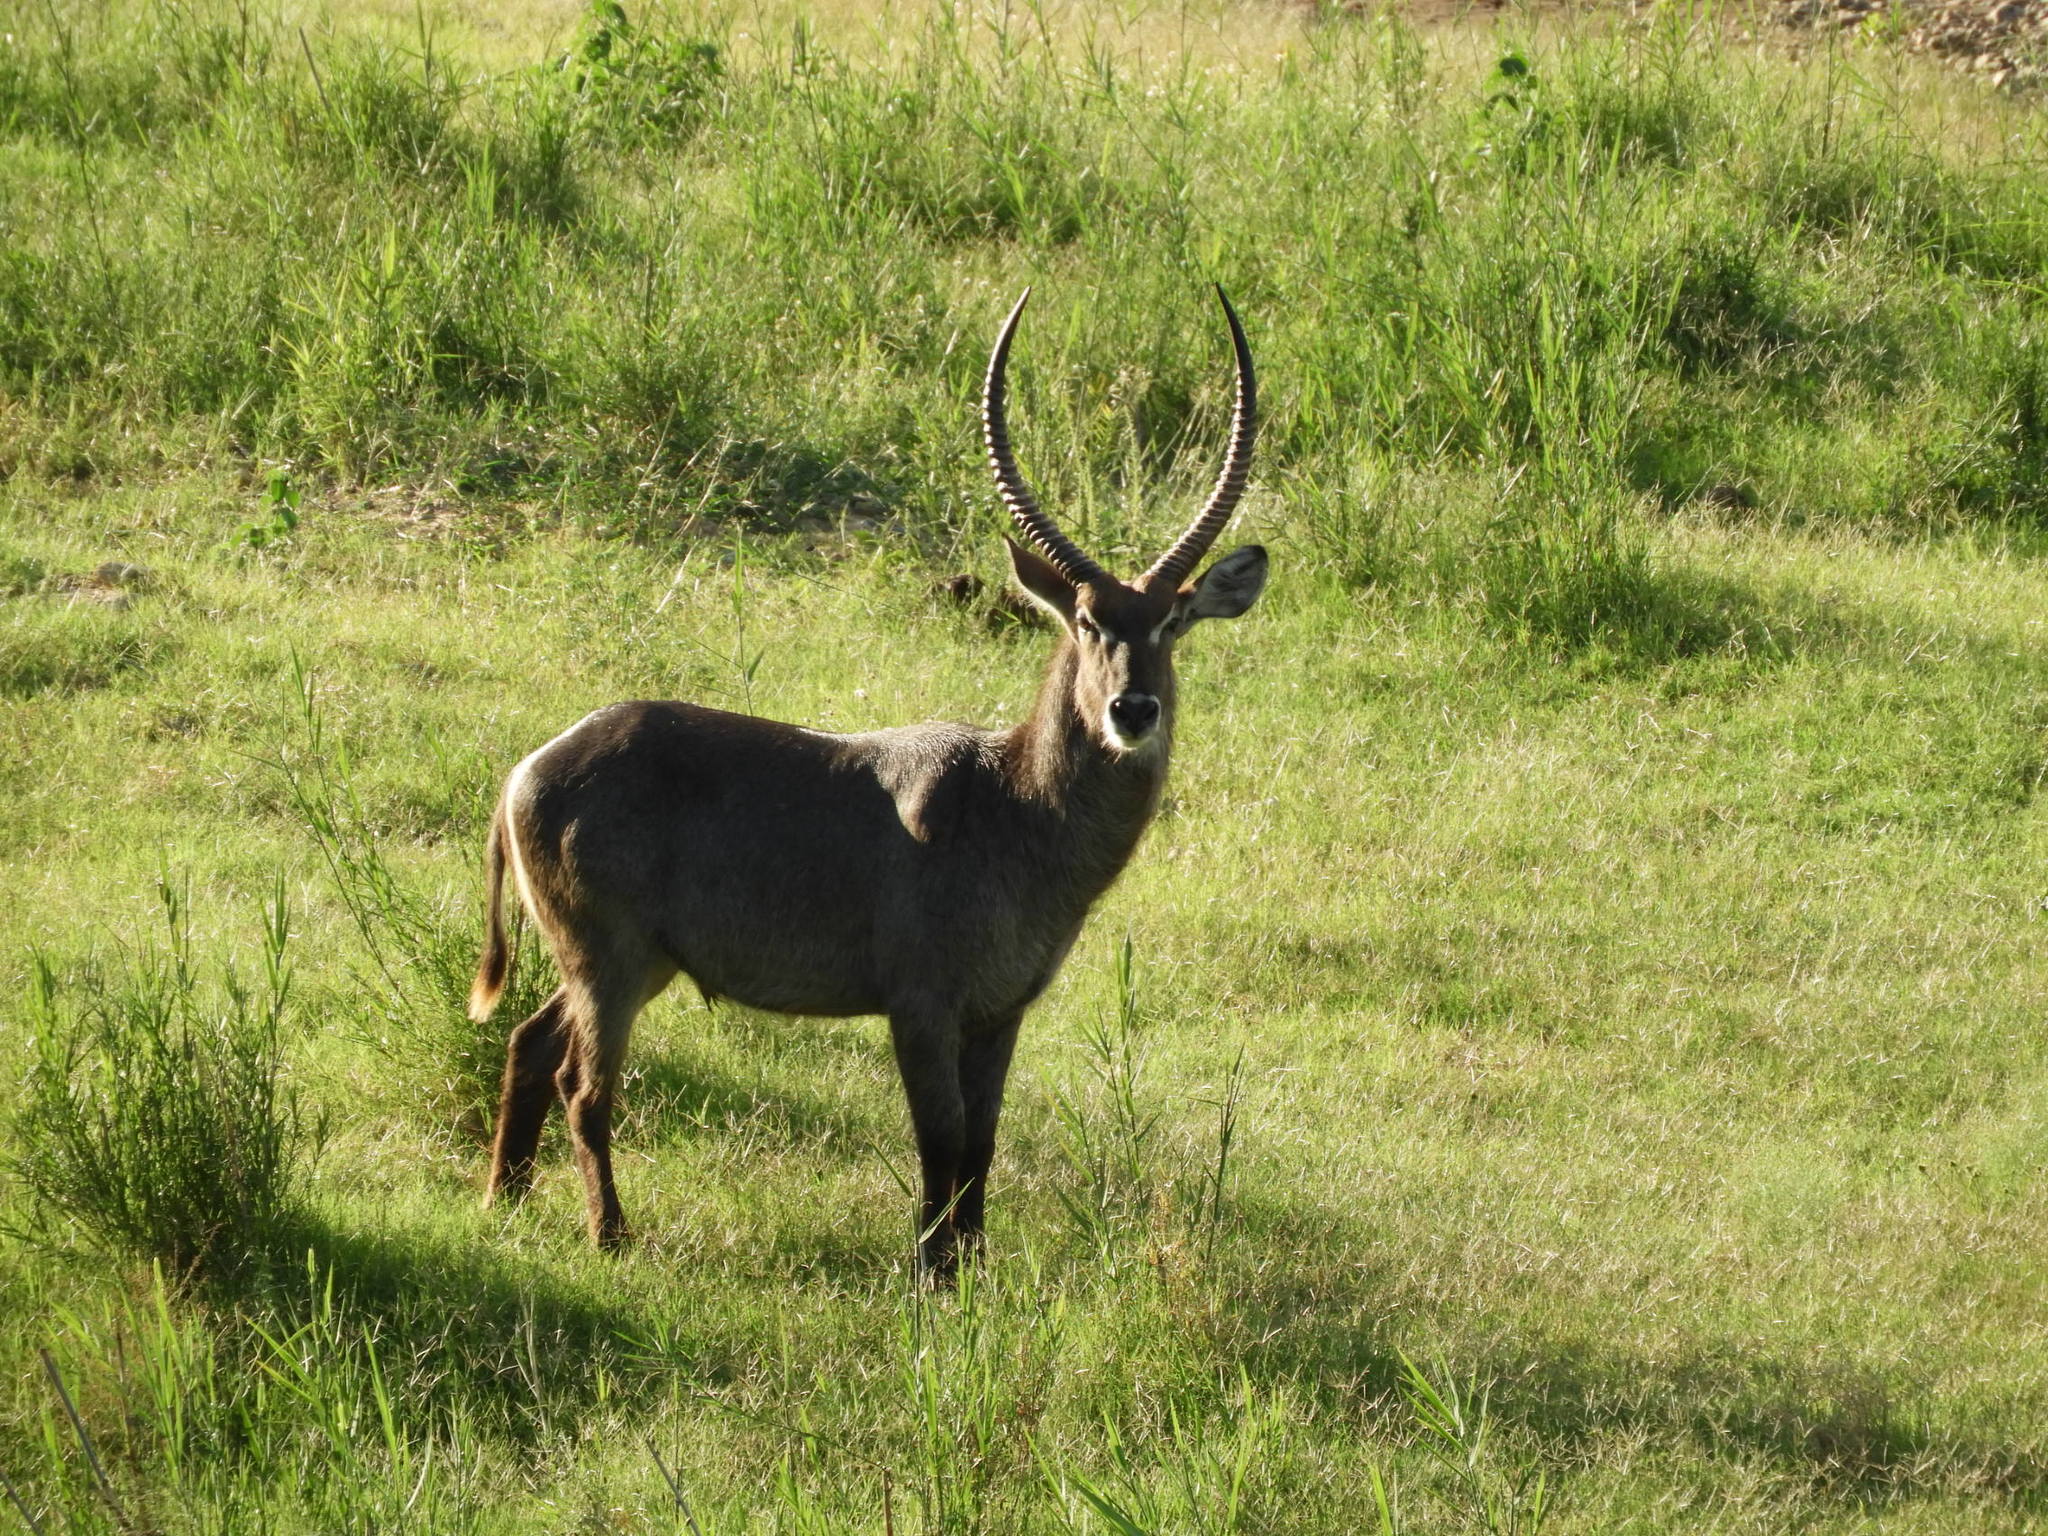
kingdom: Animalia
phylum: Chordata
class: Mammalia
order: Artiodactyla
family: Bovidae
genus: Kobus
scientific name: Kobus ellipsiprymnus
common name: Waterbuck
